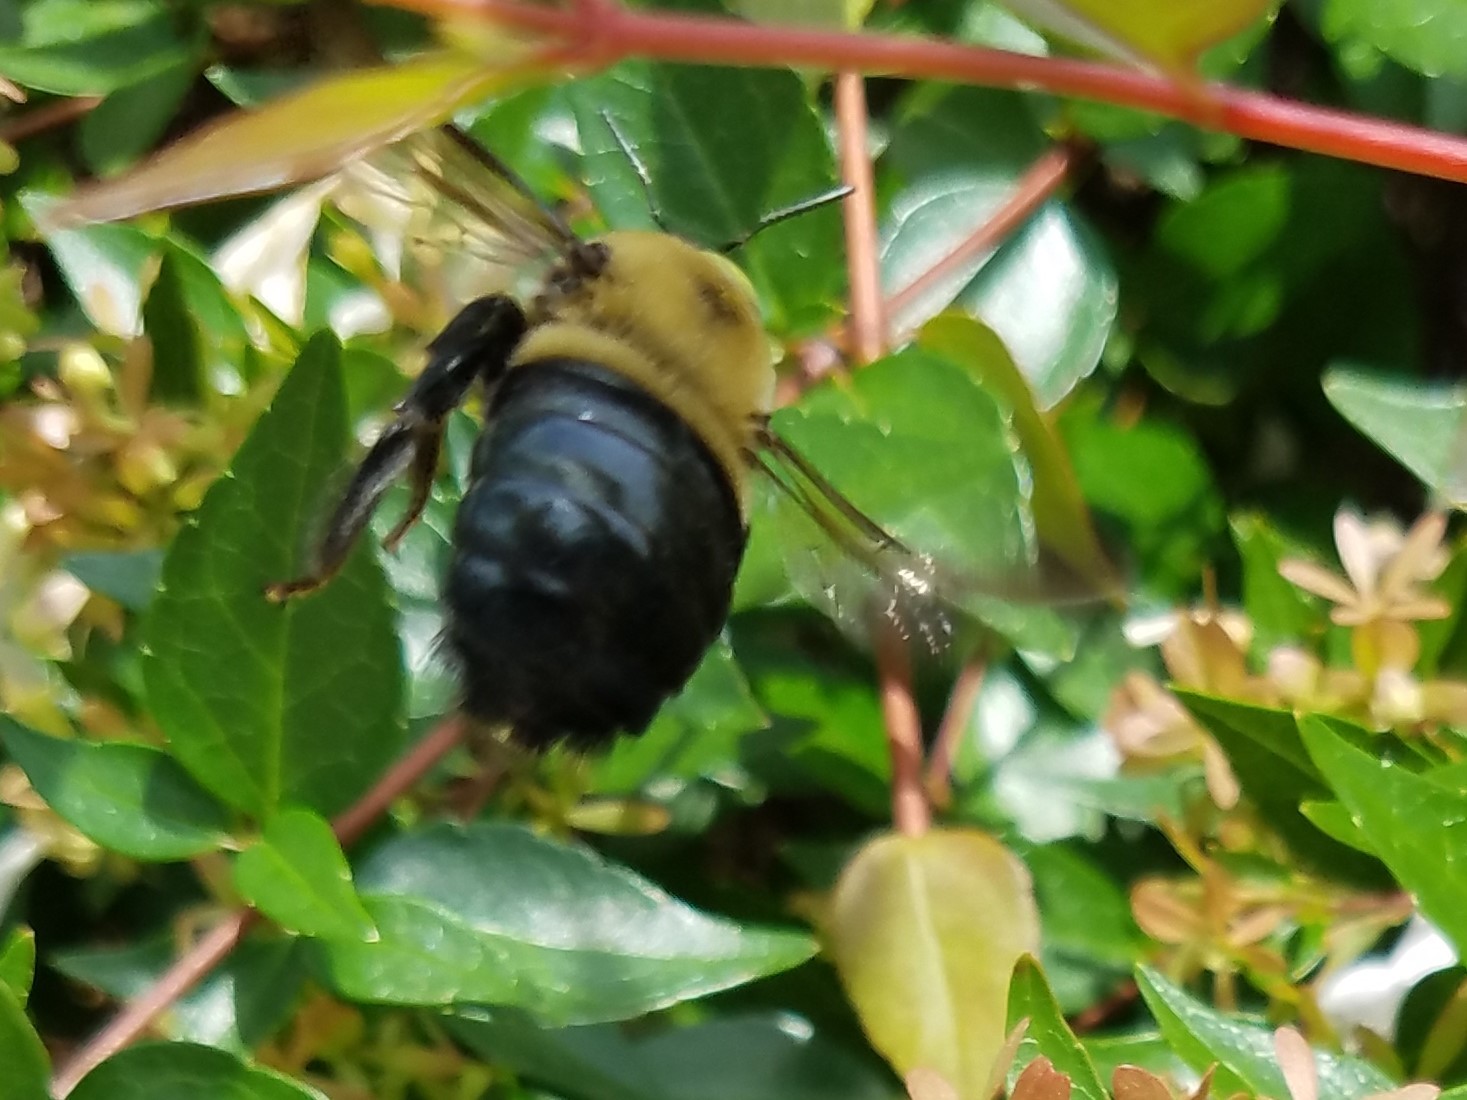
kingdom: Animalia
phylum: Arthropoda
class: Insecta
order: Hymenoptera
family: Apidae
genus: Xylocopa
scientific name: Xylocopa virginica
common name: Carpenter bee
